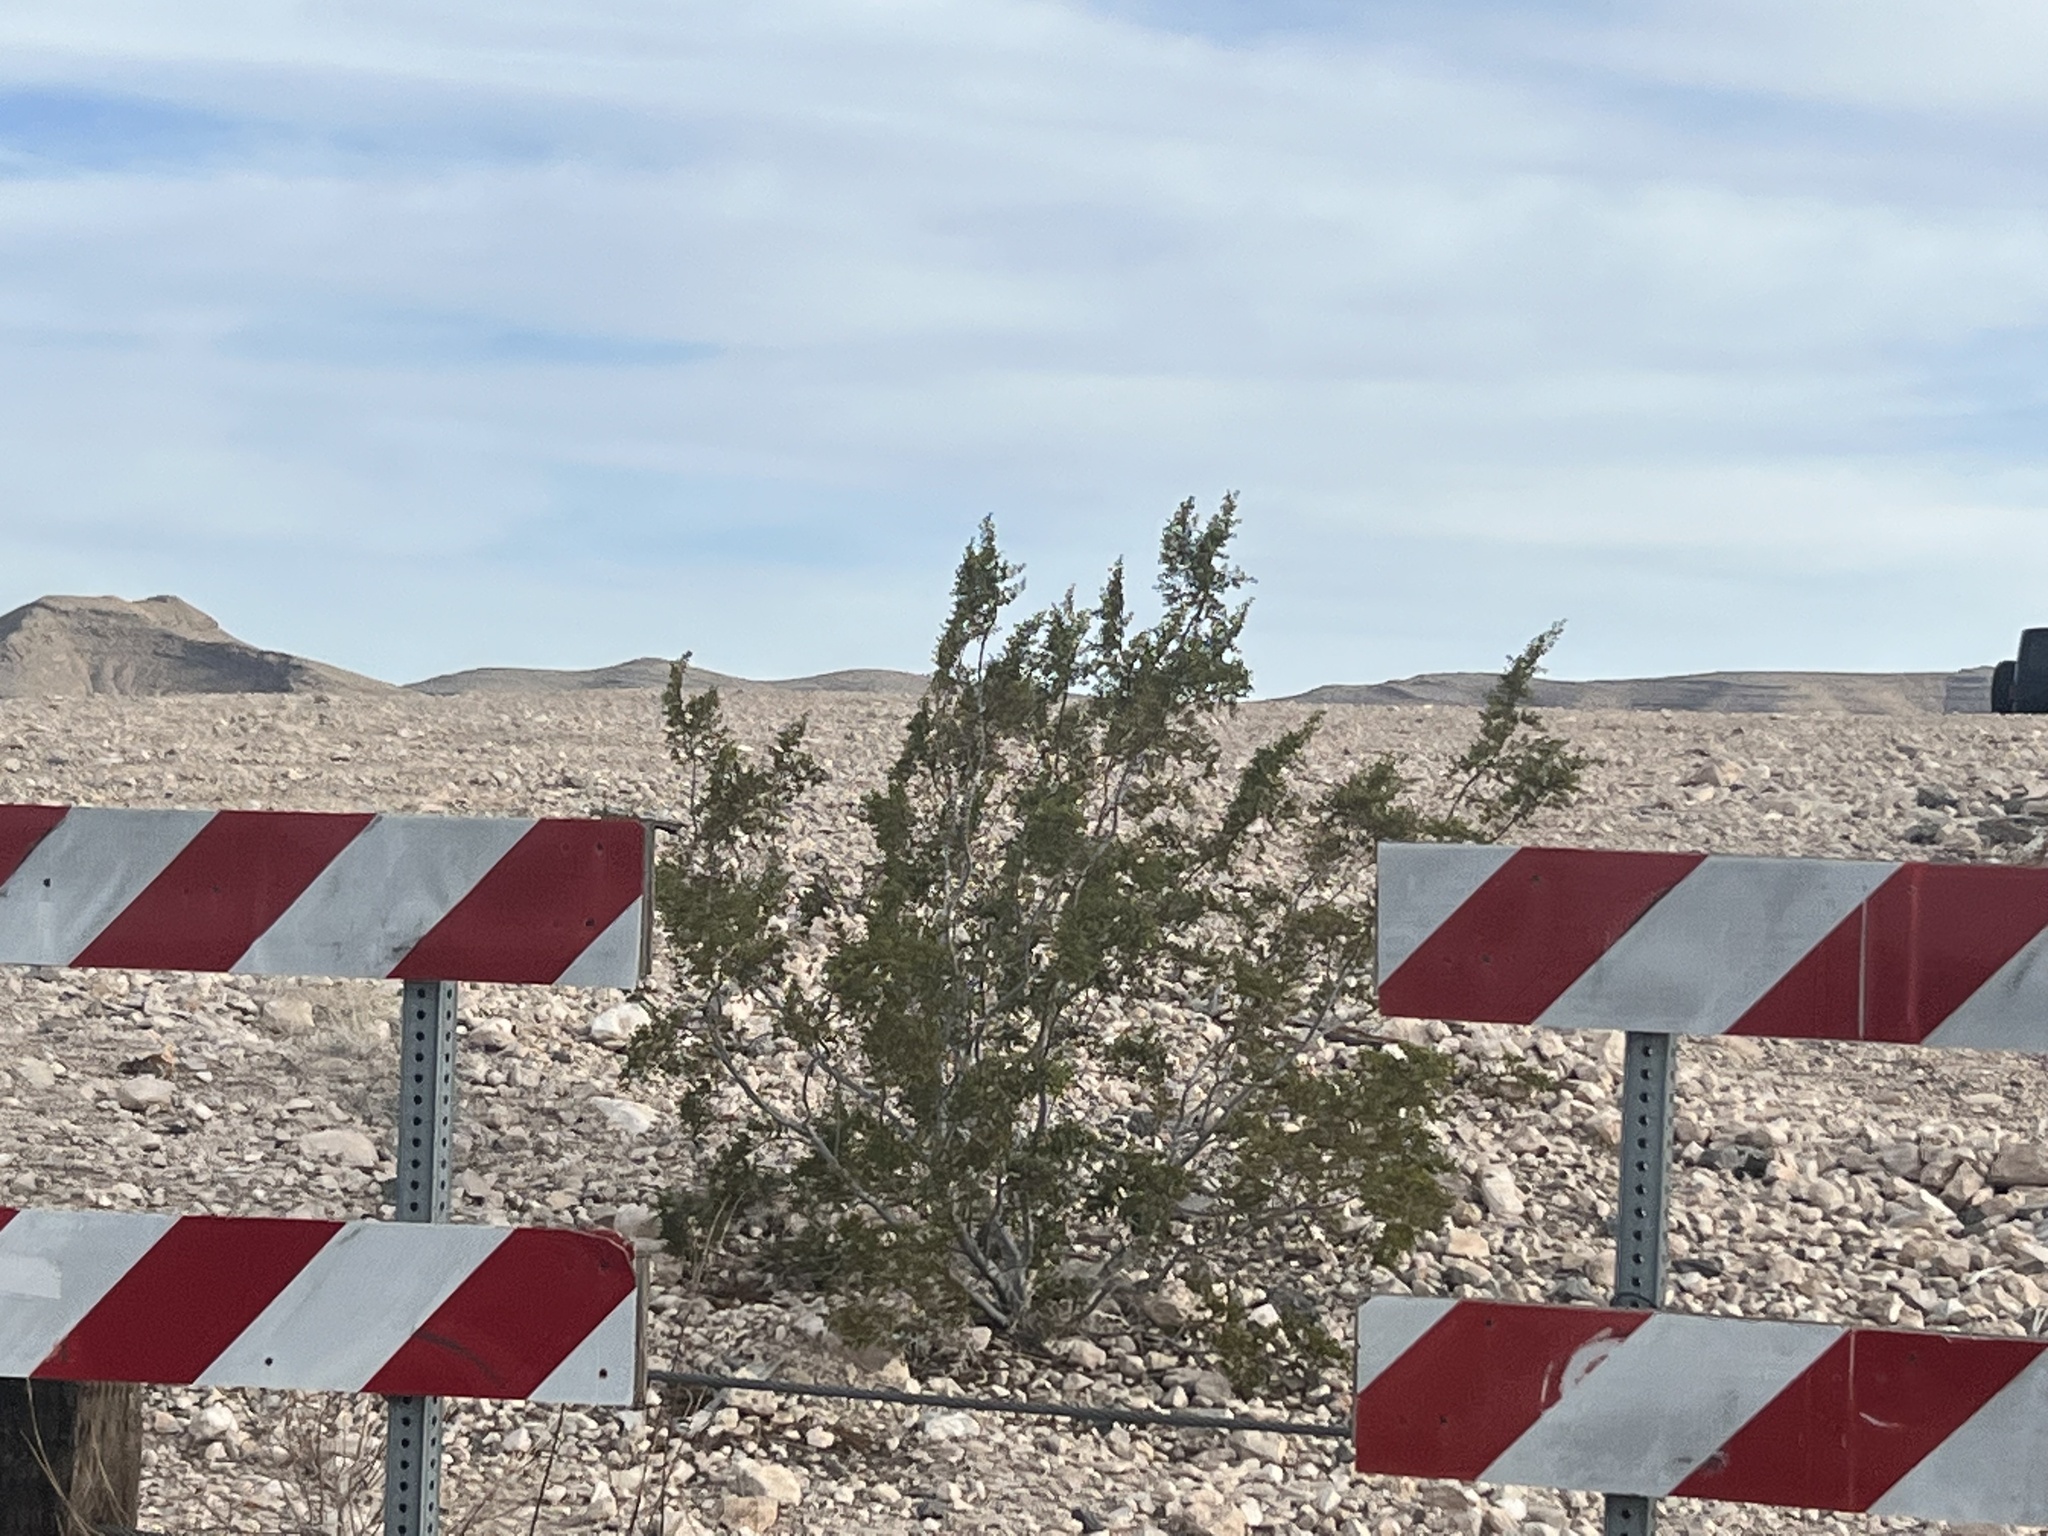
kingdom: Plantae
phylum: Tracheophyta
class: Magnoliopsida
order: Zygophyllales
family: Zygophyllaceae
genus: Larrea
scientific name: Larrea tridentata
